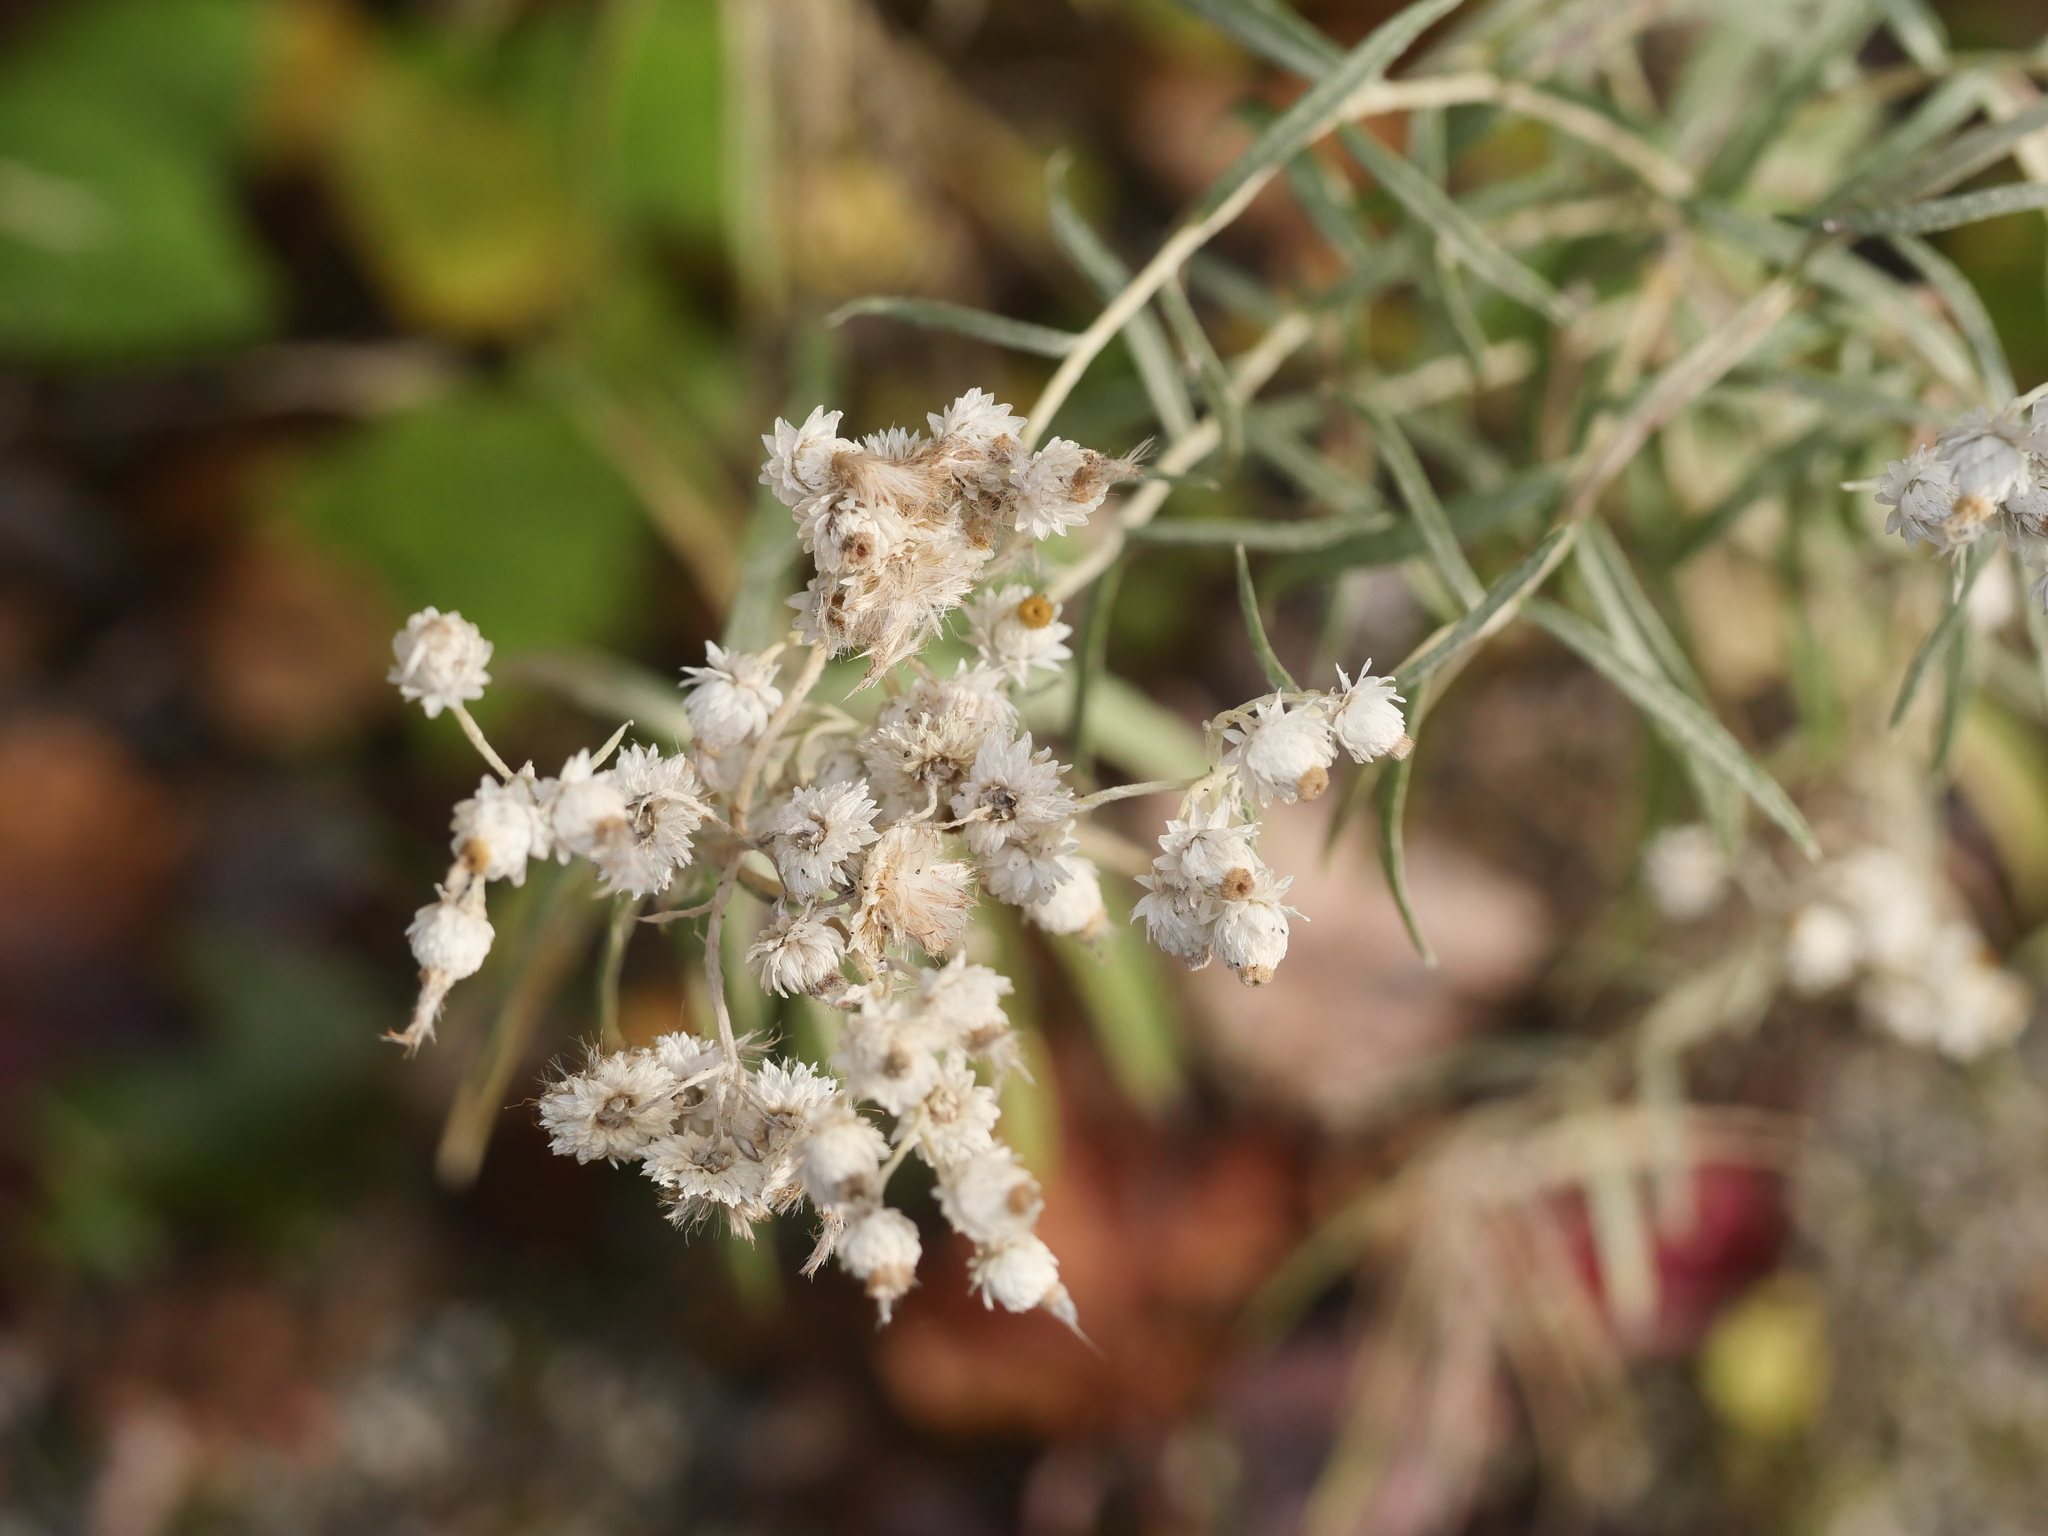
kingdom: Plantae
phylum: Tracheophyta
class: Magnoliopsida
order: Asterales
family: Asteraceae
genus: Anaphalis
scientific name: Anaphalis margaritacea
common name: Pearly everlasting
